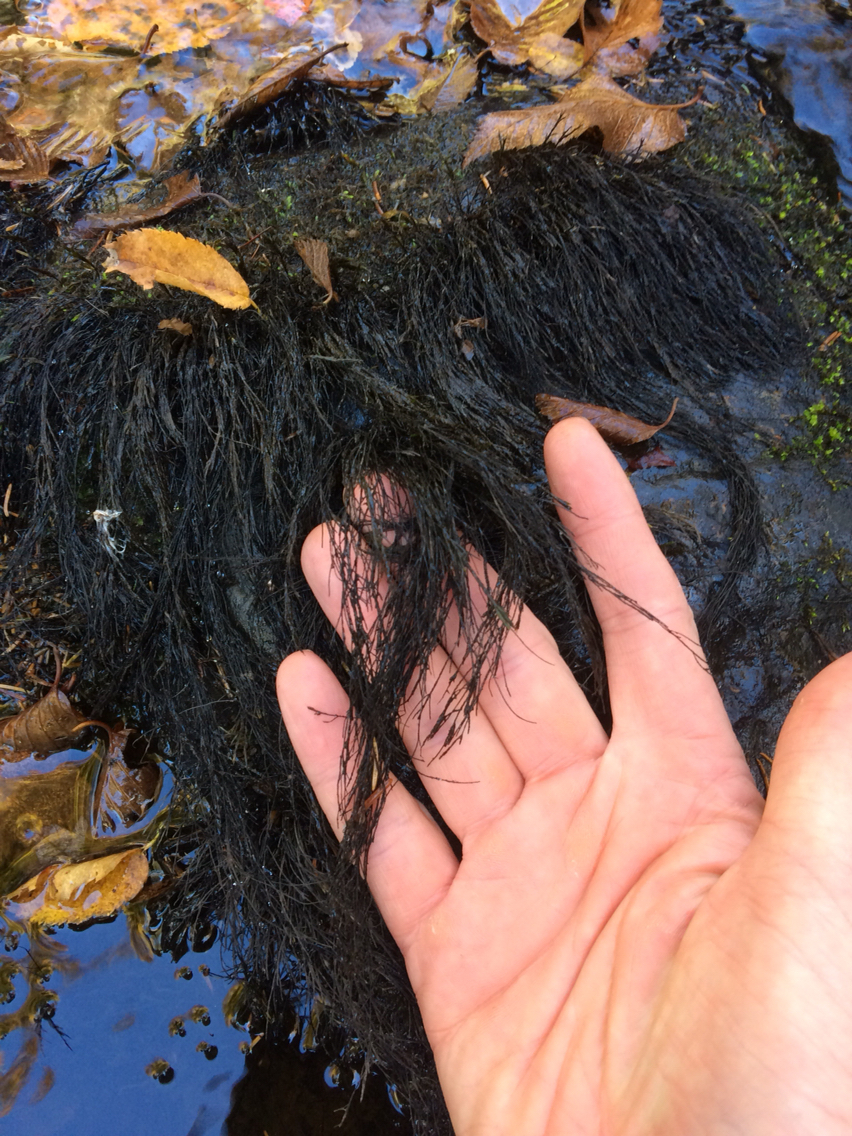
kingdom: Plantae
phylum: Bryophyta
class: Bryopsida
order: Hypnales
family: Fontinalaceae
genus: Fontinalis
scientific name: Fontinalis
